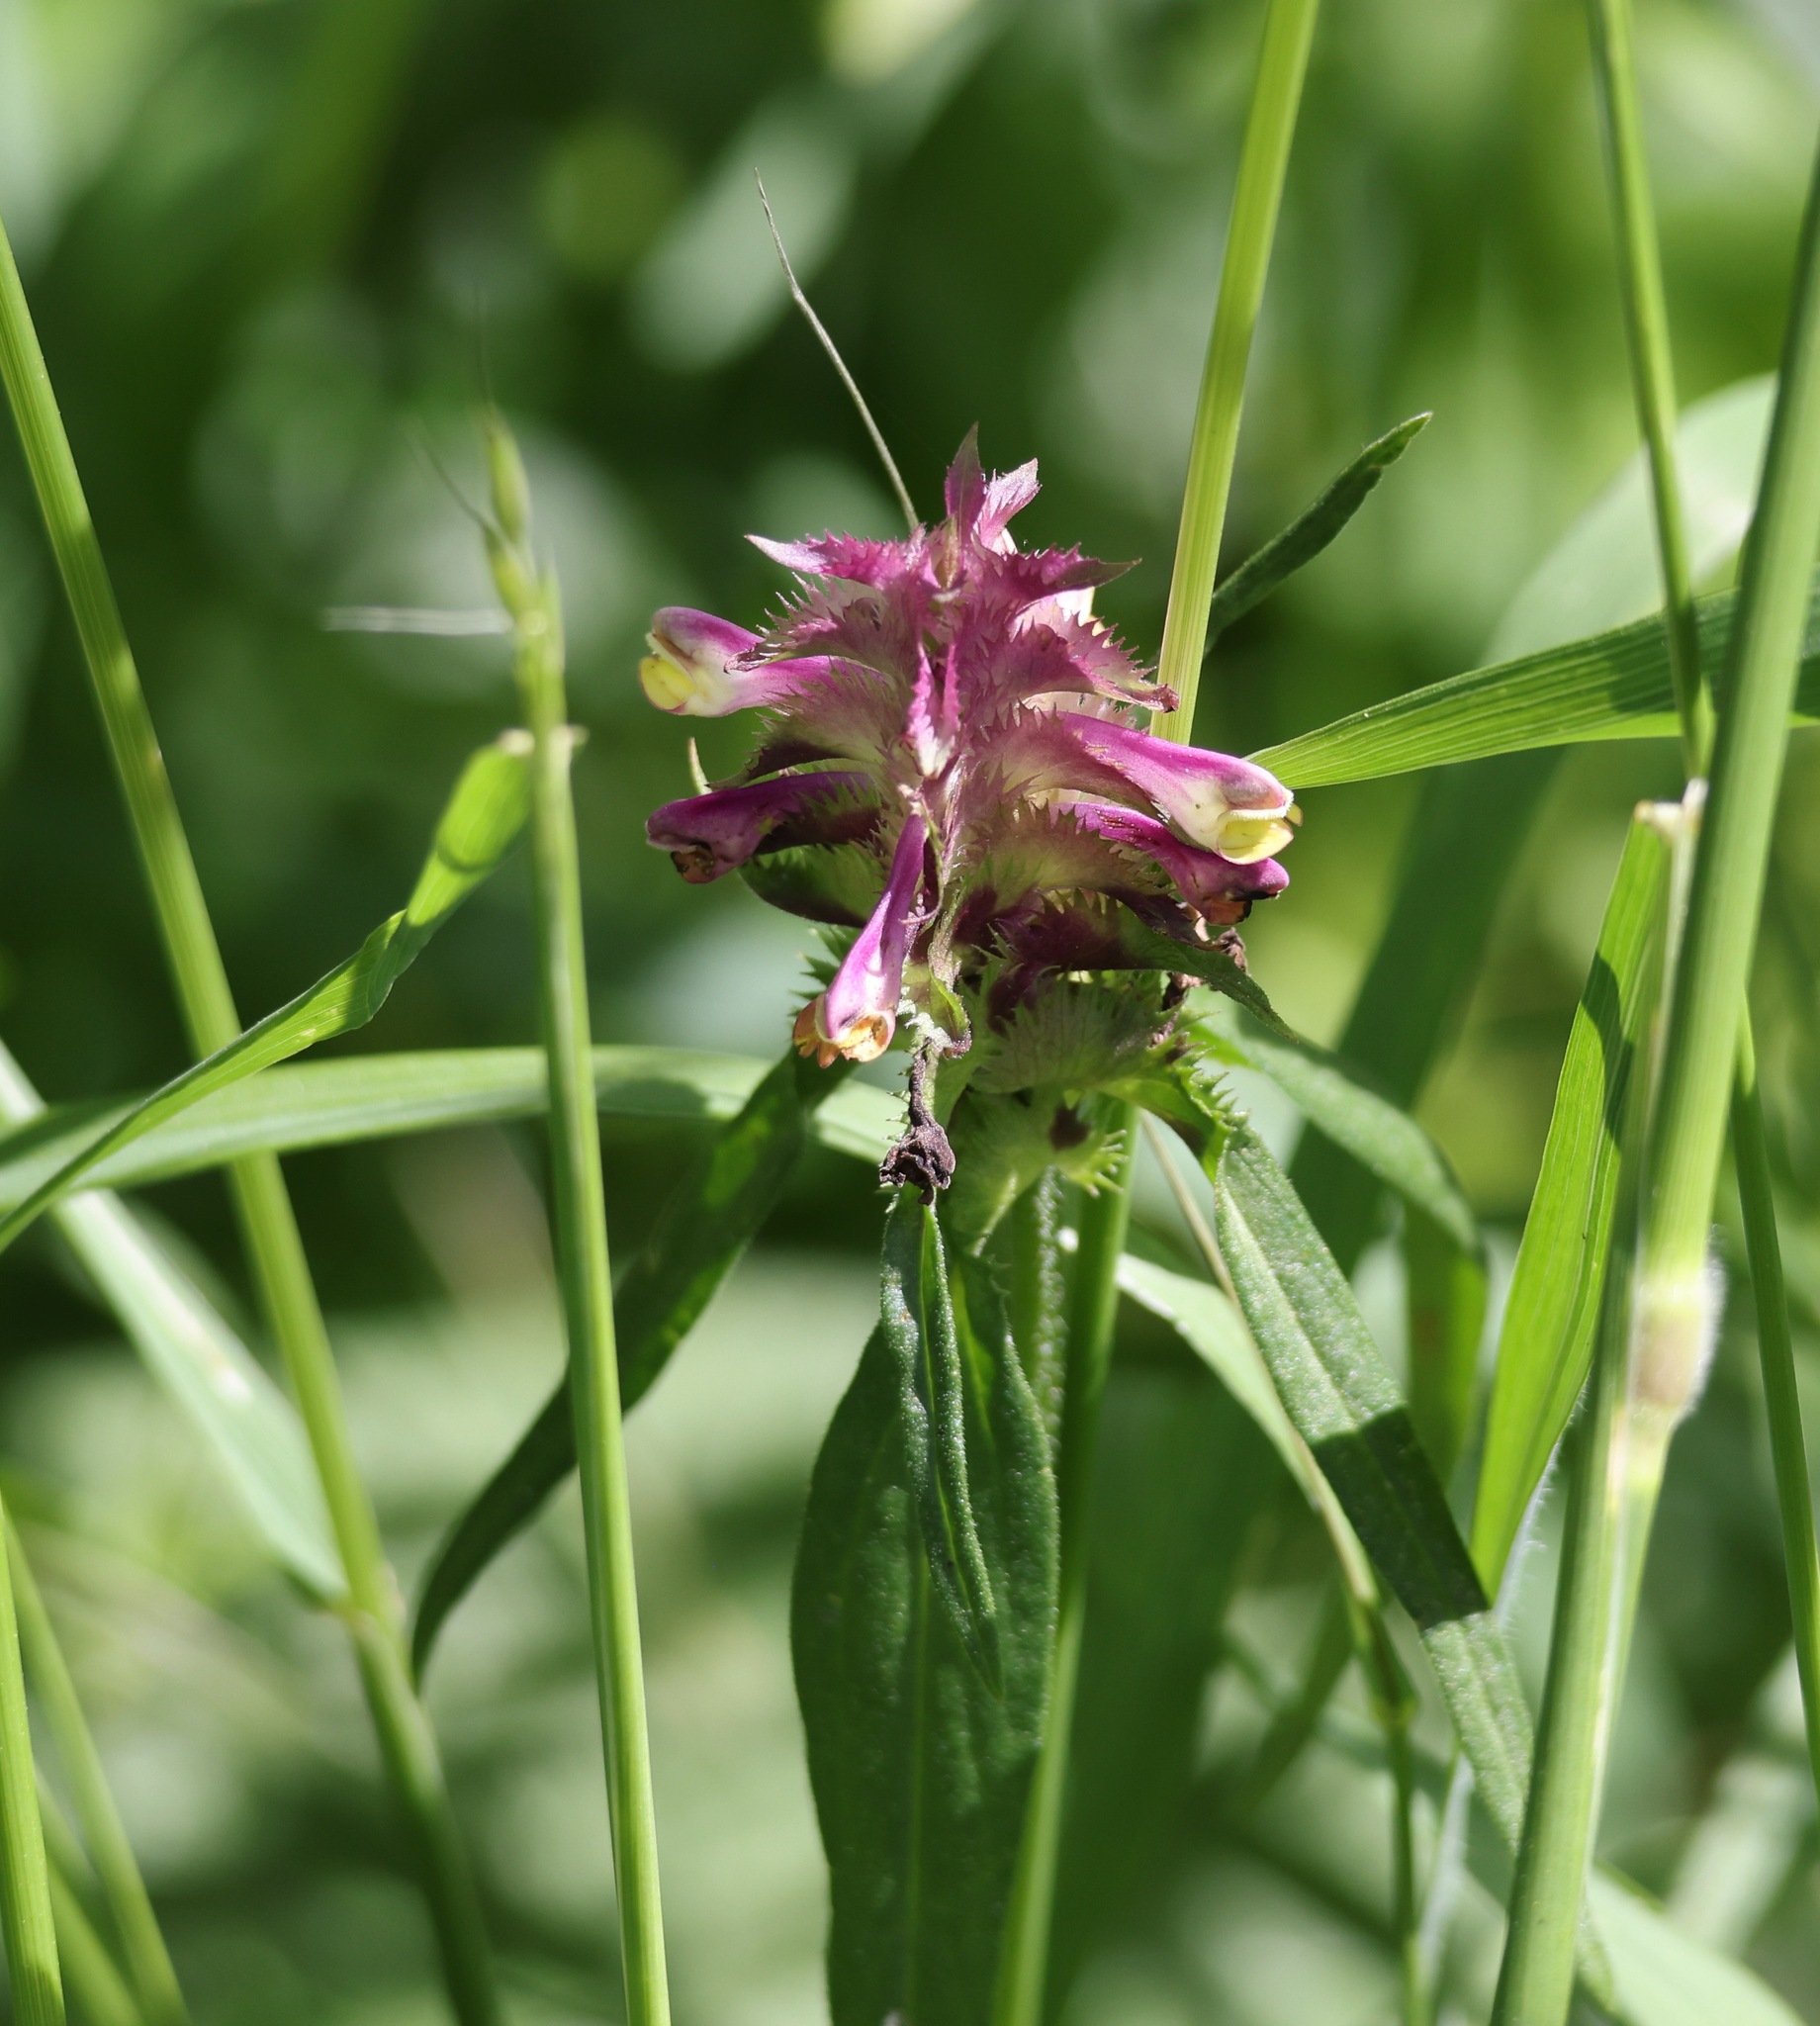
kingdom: Plantae
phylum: Tracheophyta
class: Magnoliopsida
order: Lamiales
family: Orobanchaceae
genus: Melampyrum
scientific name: Melampyrum cristatum
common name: Crested cow-wheat
